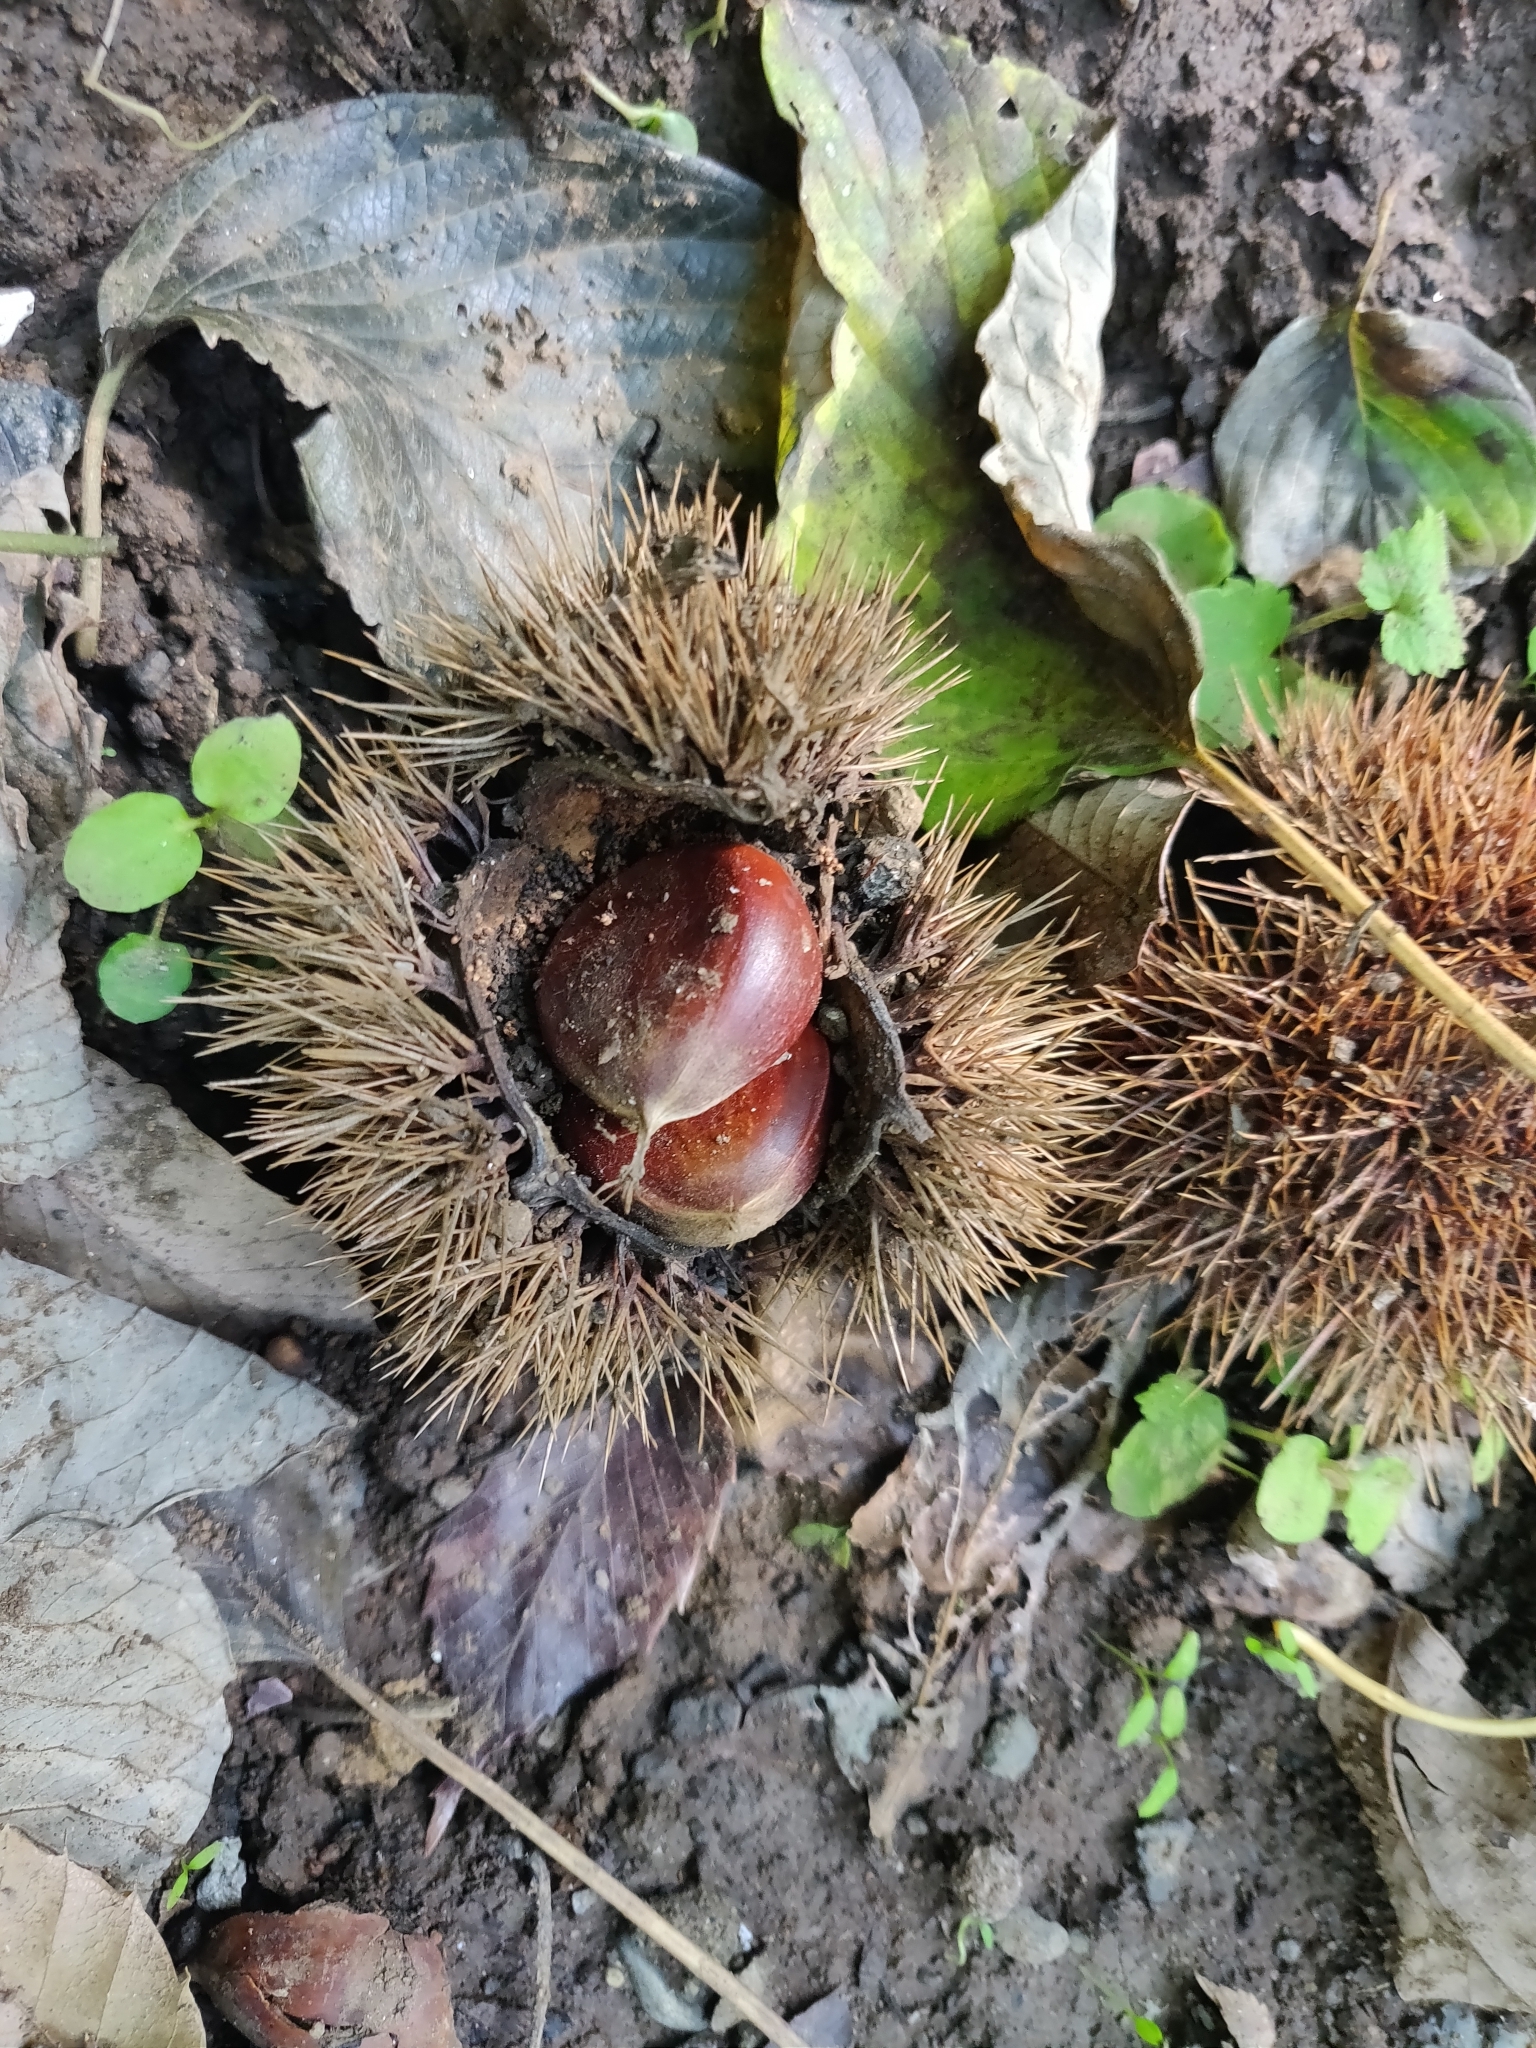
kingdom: Plantae
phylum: Tracheophyta
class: Magnoliopsida
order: Fagales
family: Fagaceae
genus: Castanea
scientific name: Castanea crenata
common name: Japanese chestnut
